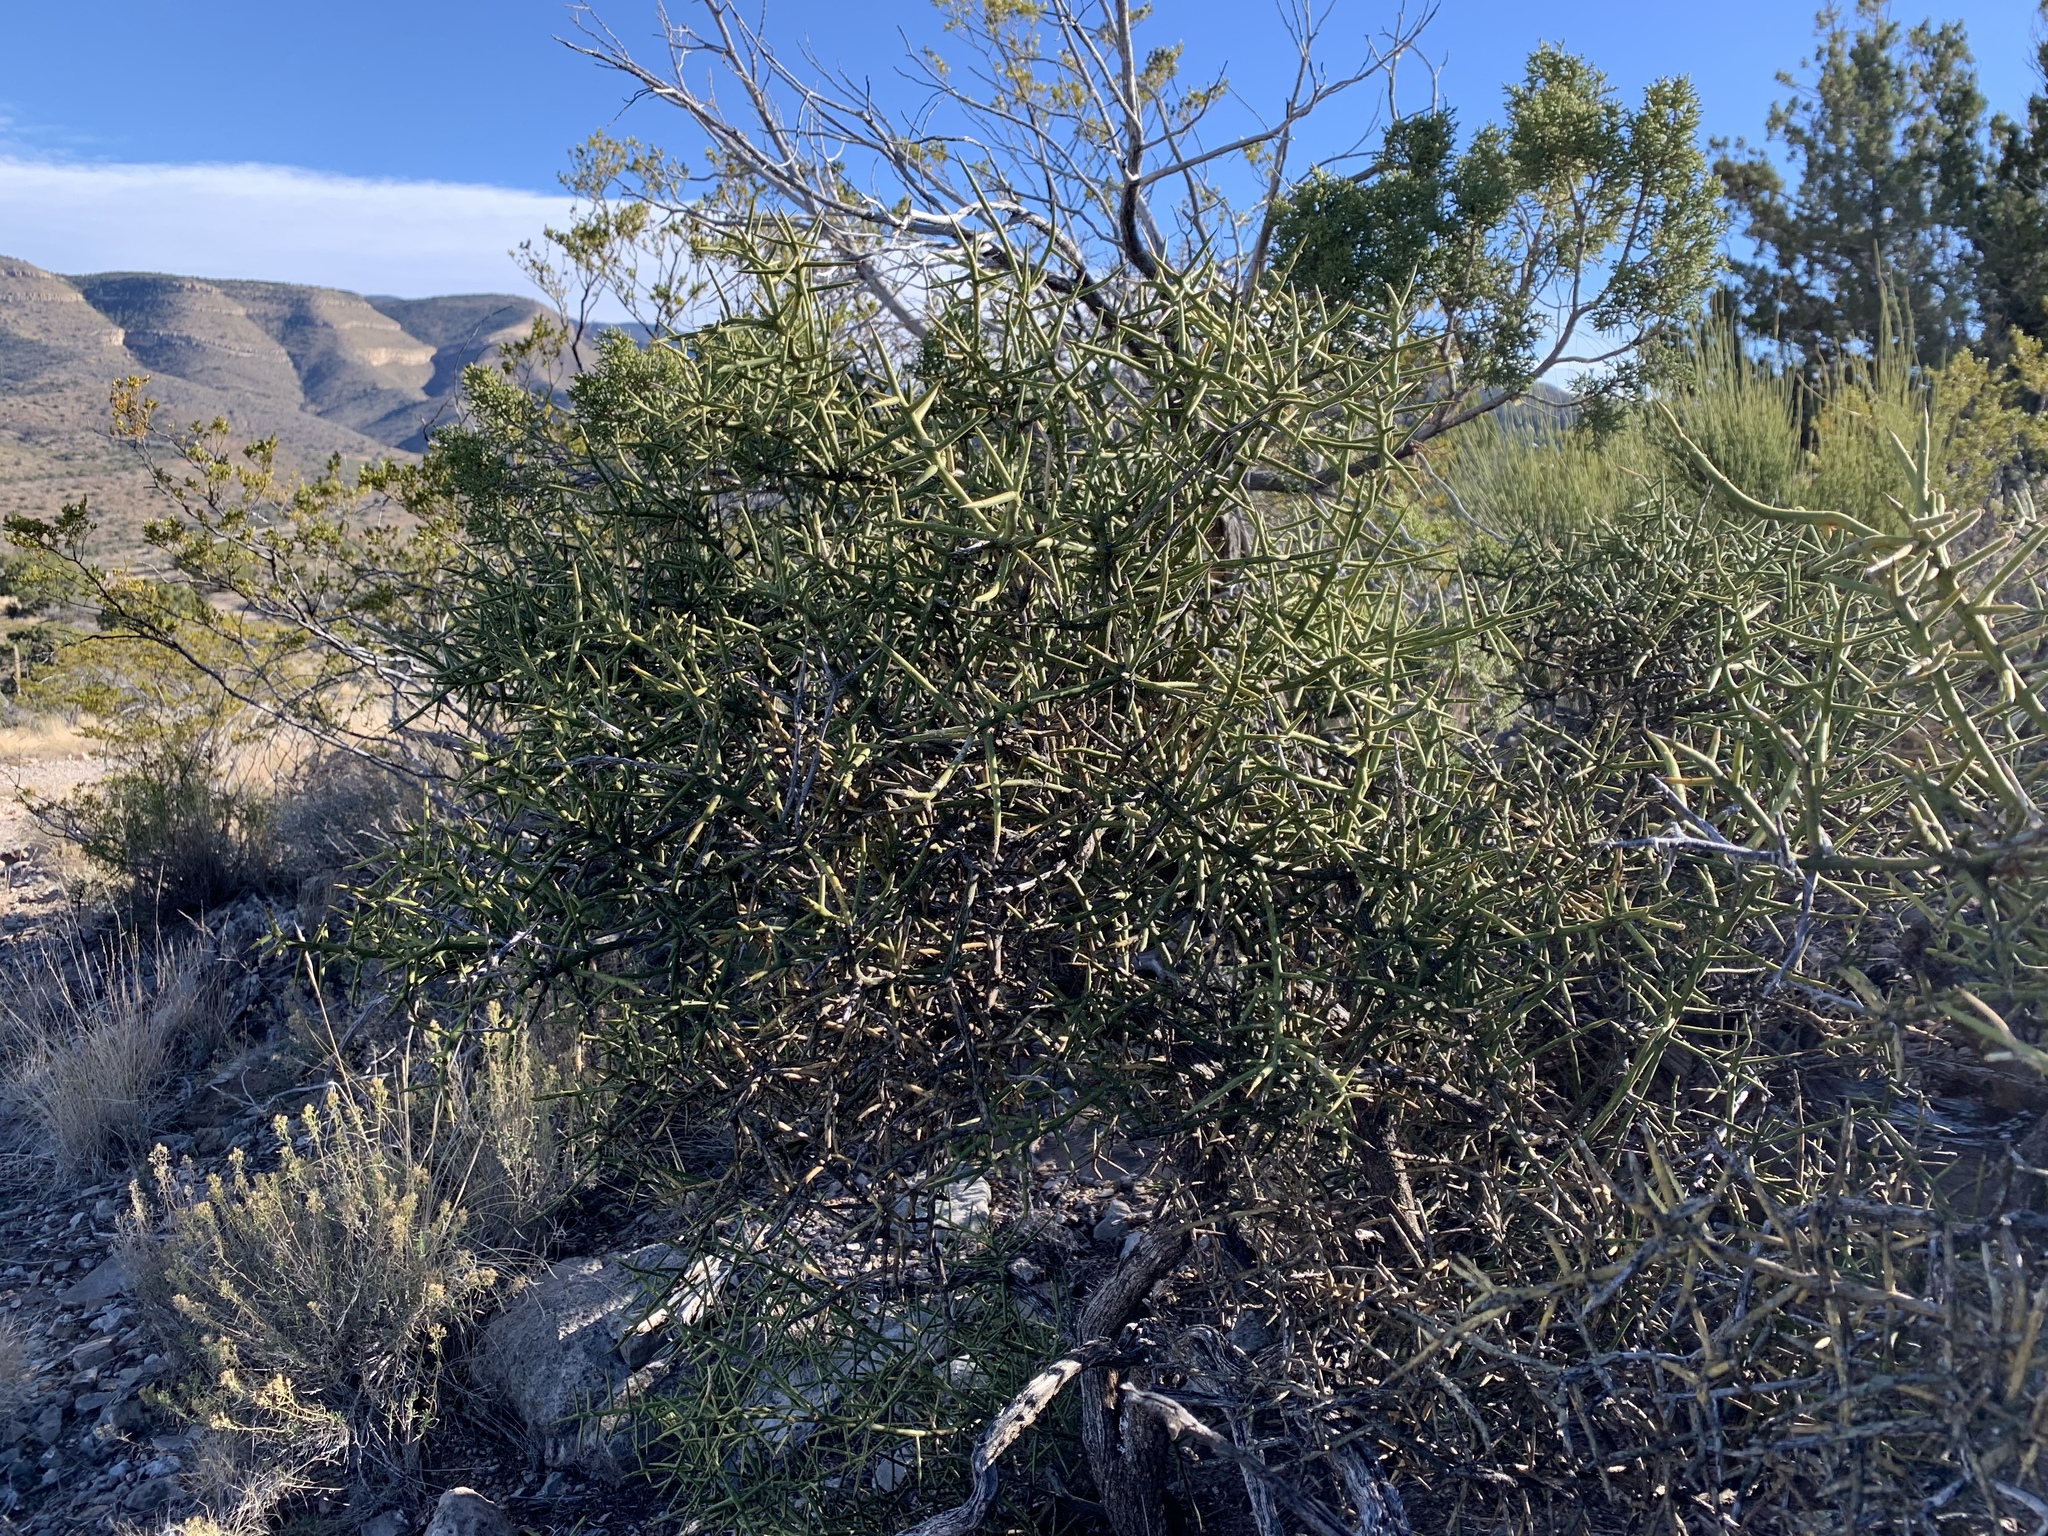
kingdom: Plantae
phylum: Tracheophyta
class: Magnoliopsida
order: Brassicales
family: Koeberliniaceae
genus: Koeberlinia
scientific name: Koeberlinia spinosa
